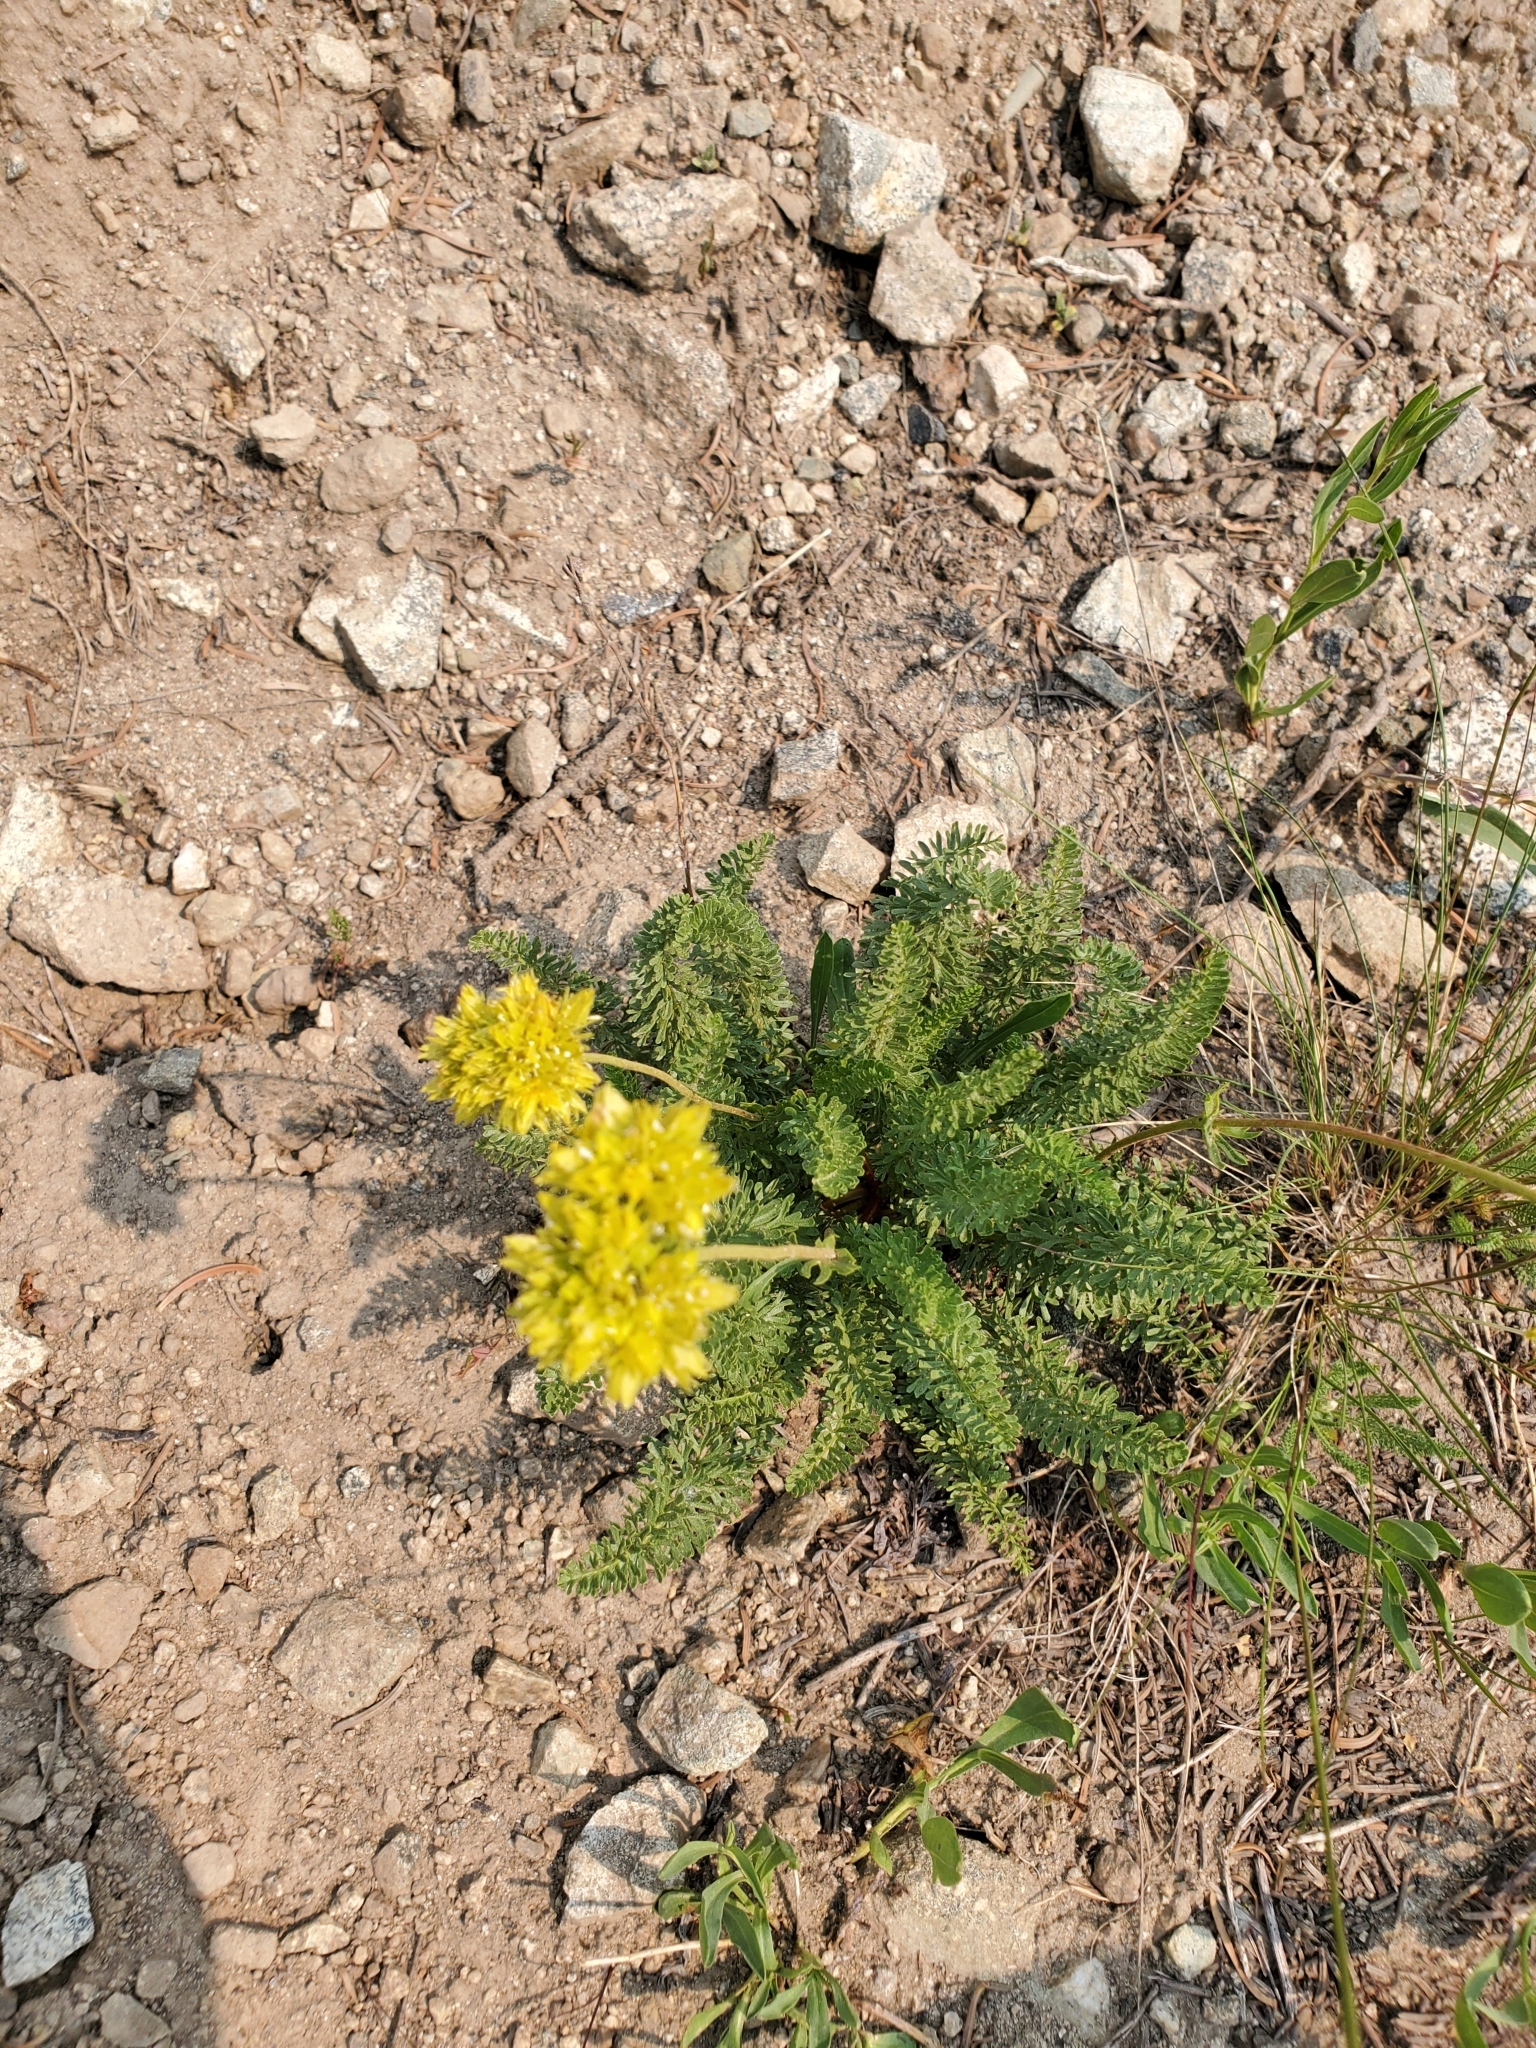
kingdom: Plantae
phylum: Tracheophyta
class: Magnoliopsida
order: Rosales
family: Rosaceae
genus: Potentilla
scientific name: Potentilla gordonii
